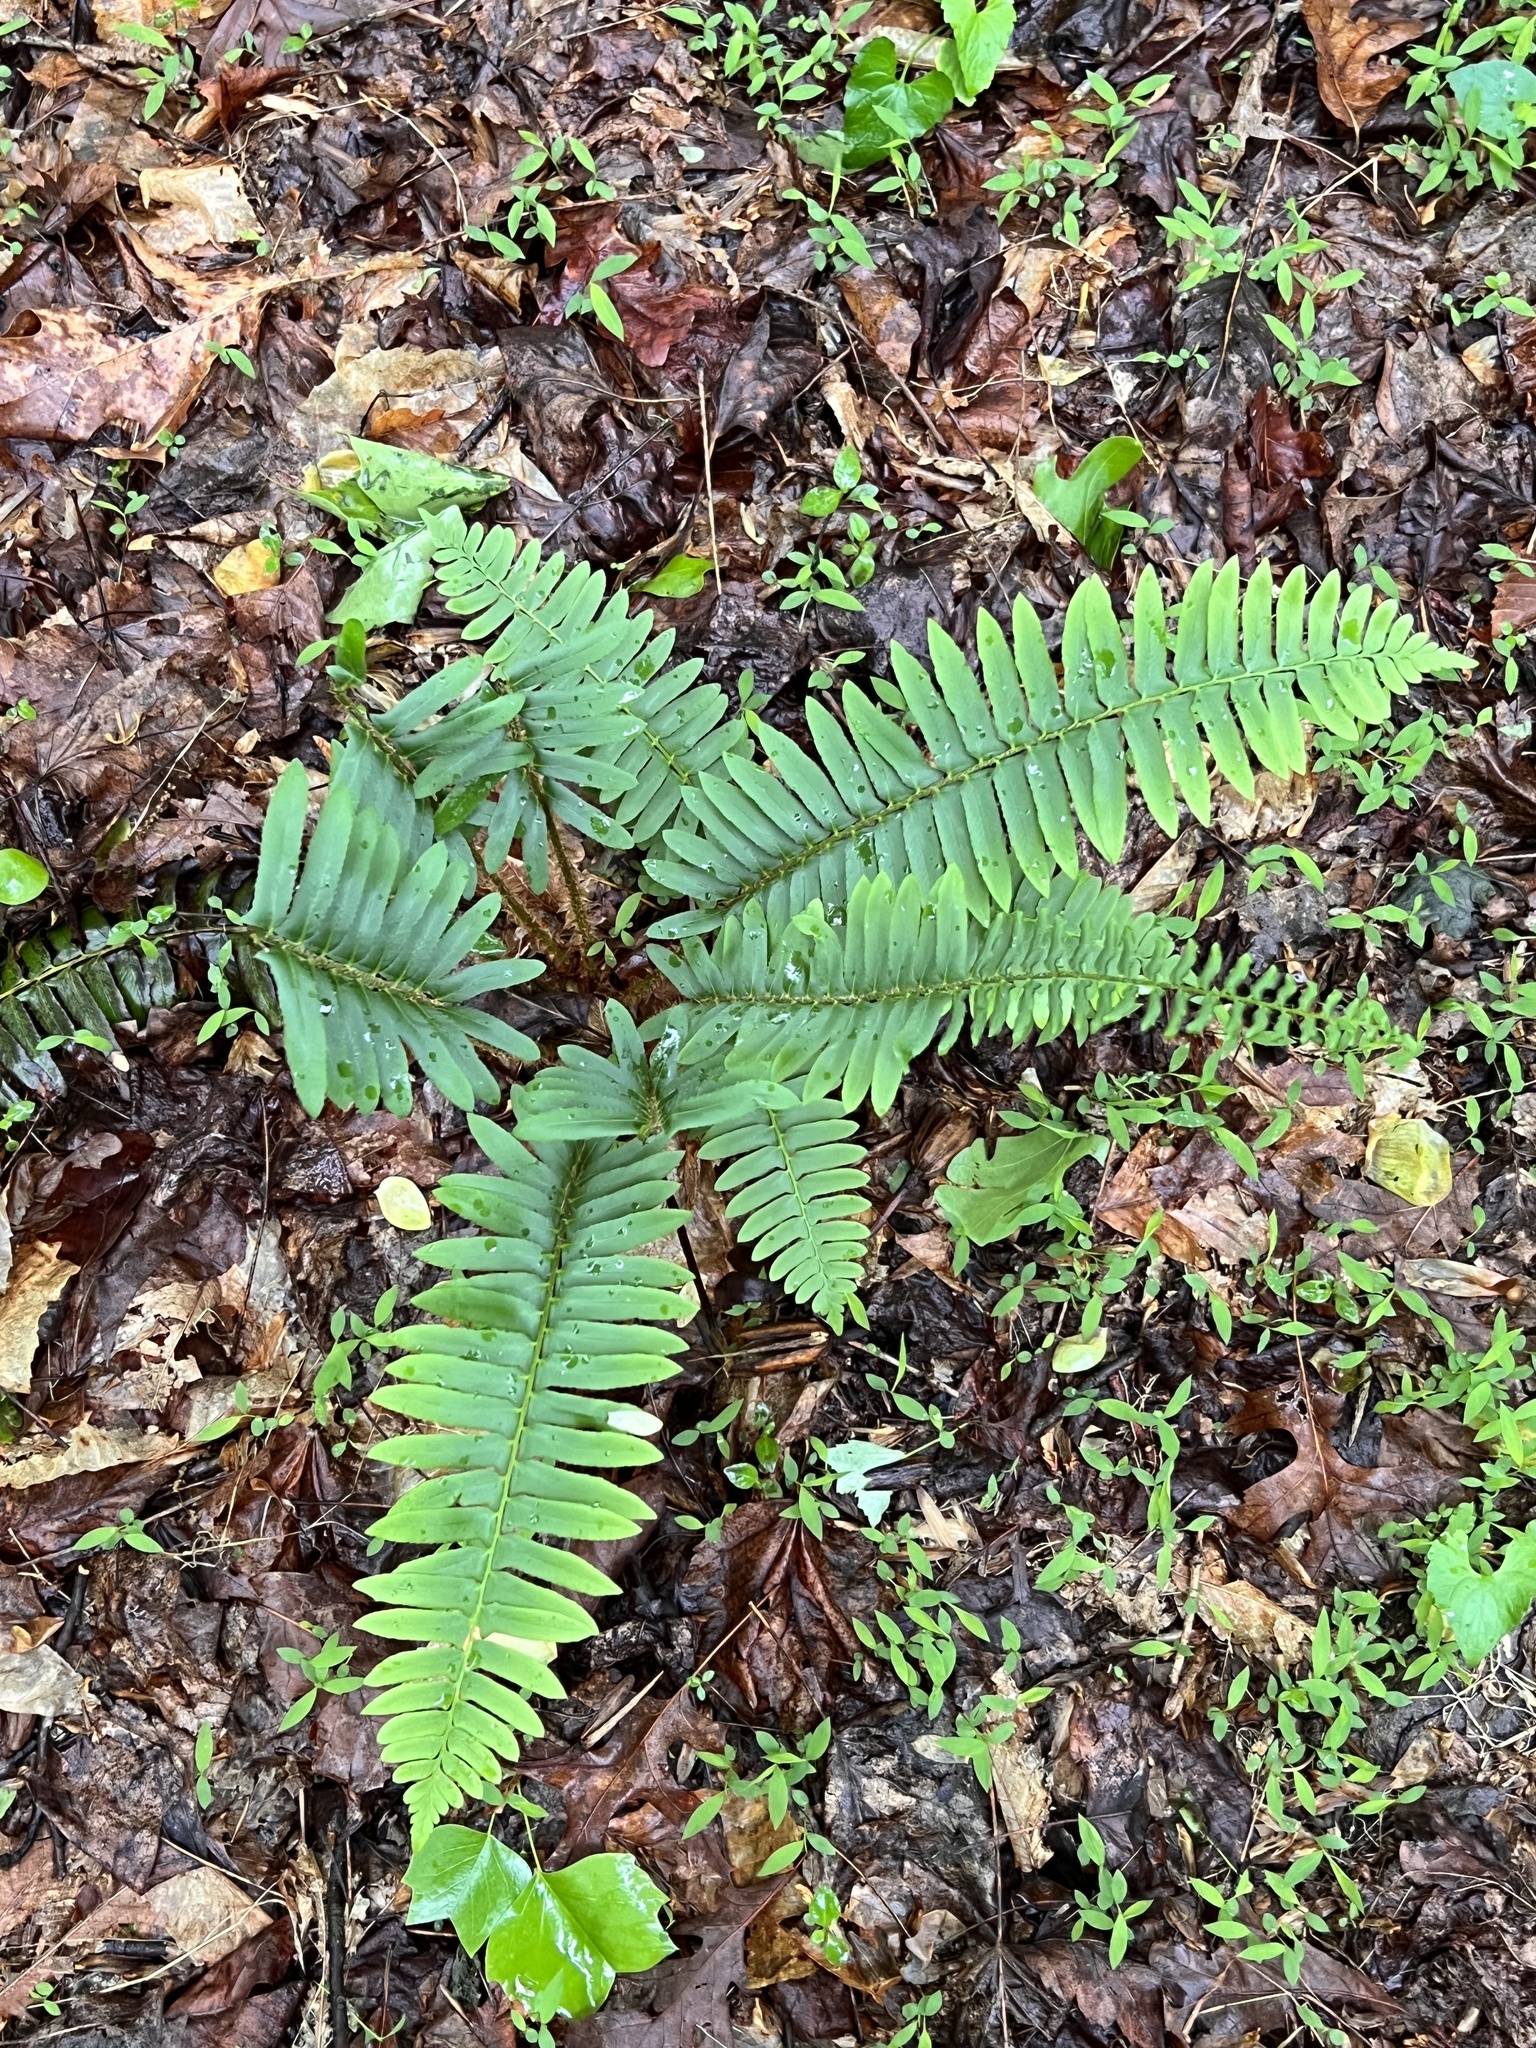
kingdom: Plantae
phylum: Tracheophyta
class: Polypodiopsida
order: Polypodiales
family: Dryopteridaceae
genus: Polystichum
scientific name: Polystichum acrostichoides
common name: Christmas fern
